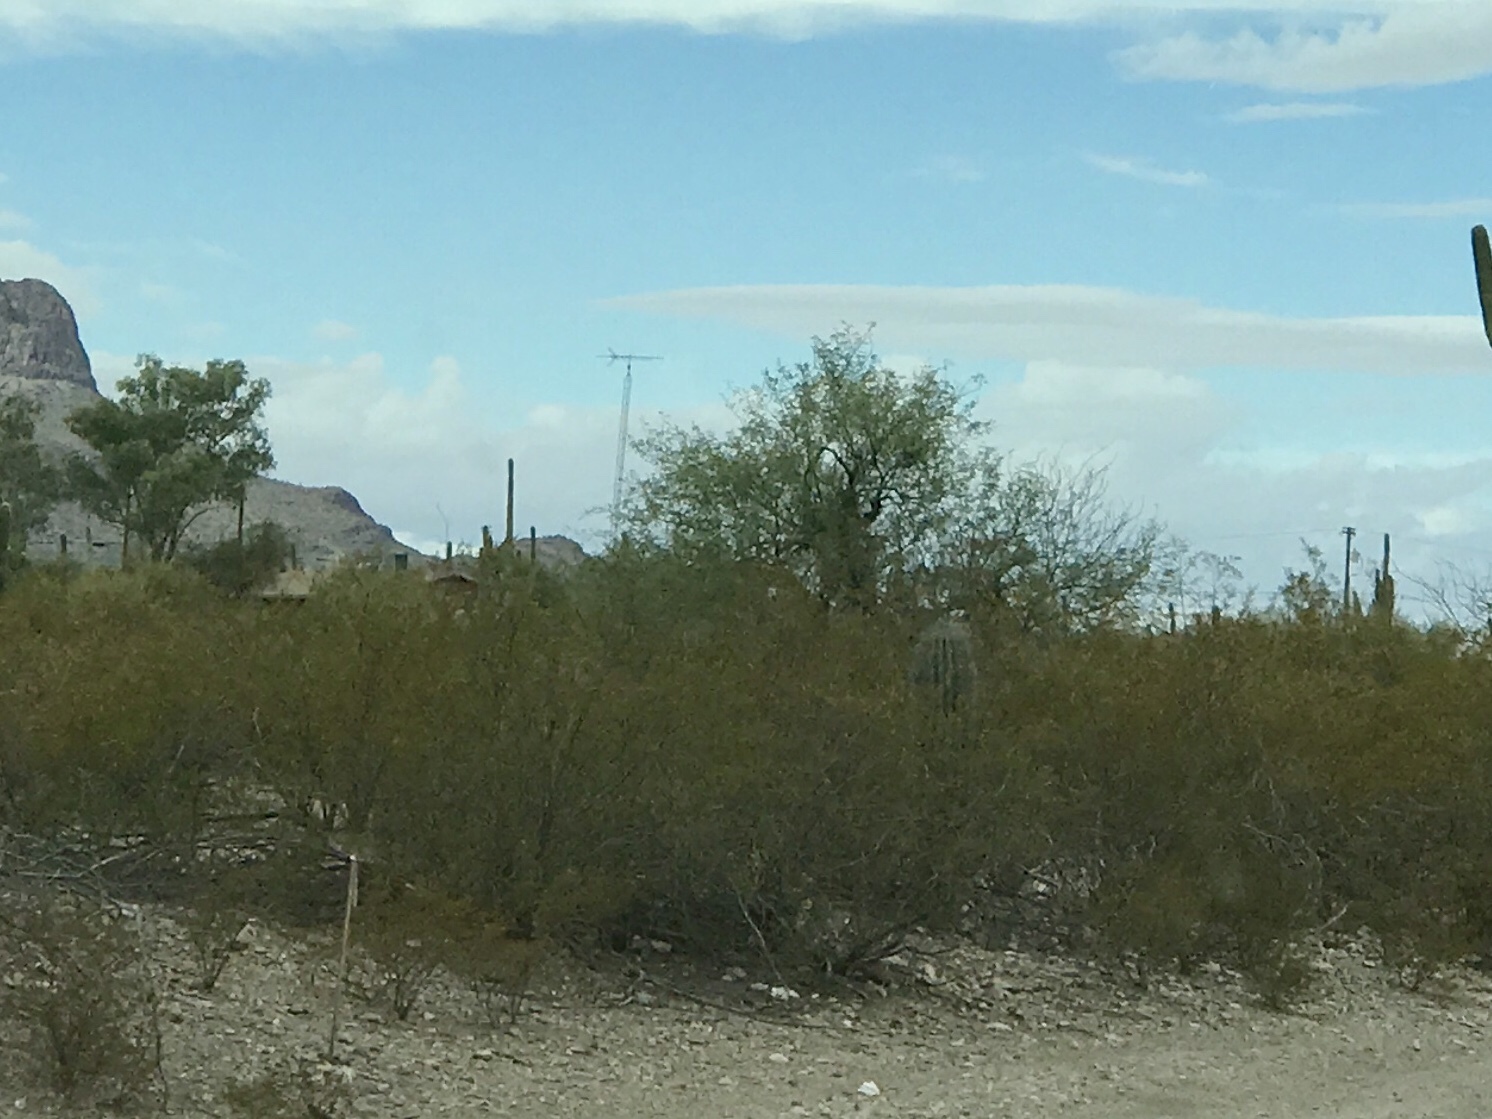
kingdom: Plantae
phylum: Tracheophyta
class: Magnoliopsida
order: Zygophyllales
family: Zygophyllaceae
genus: Larrea
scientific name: Larrea tridentata
